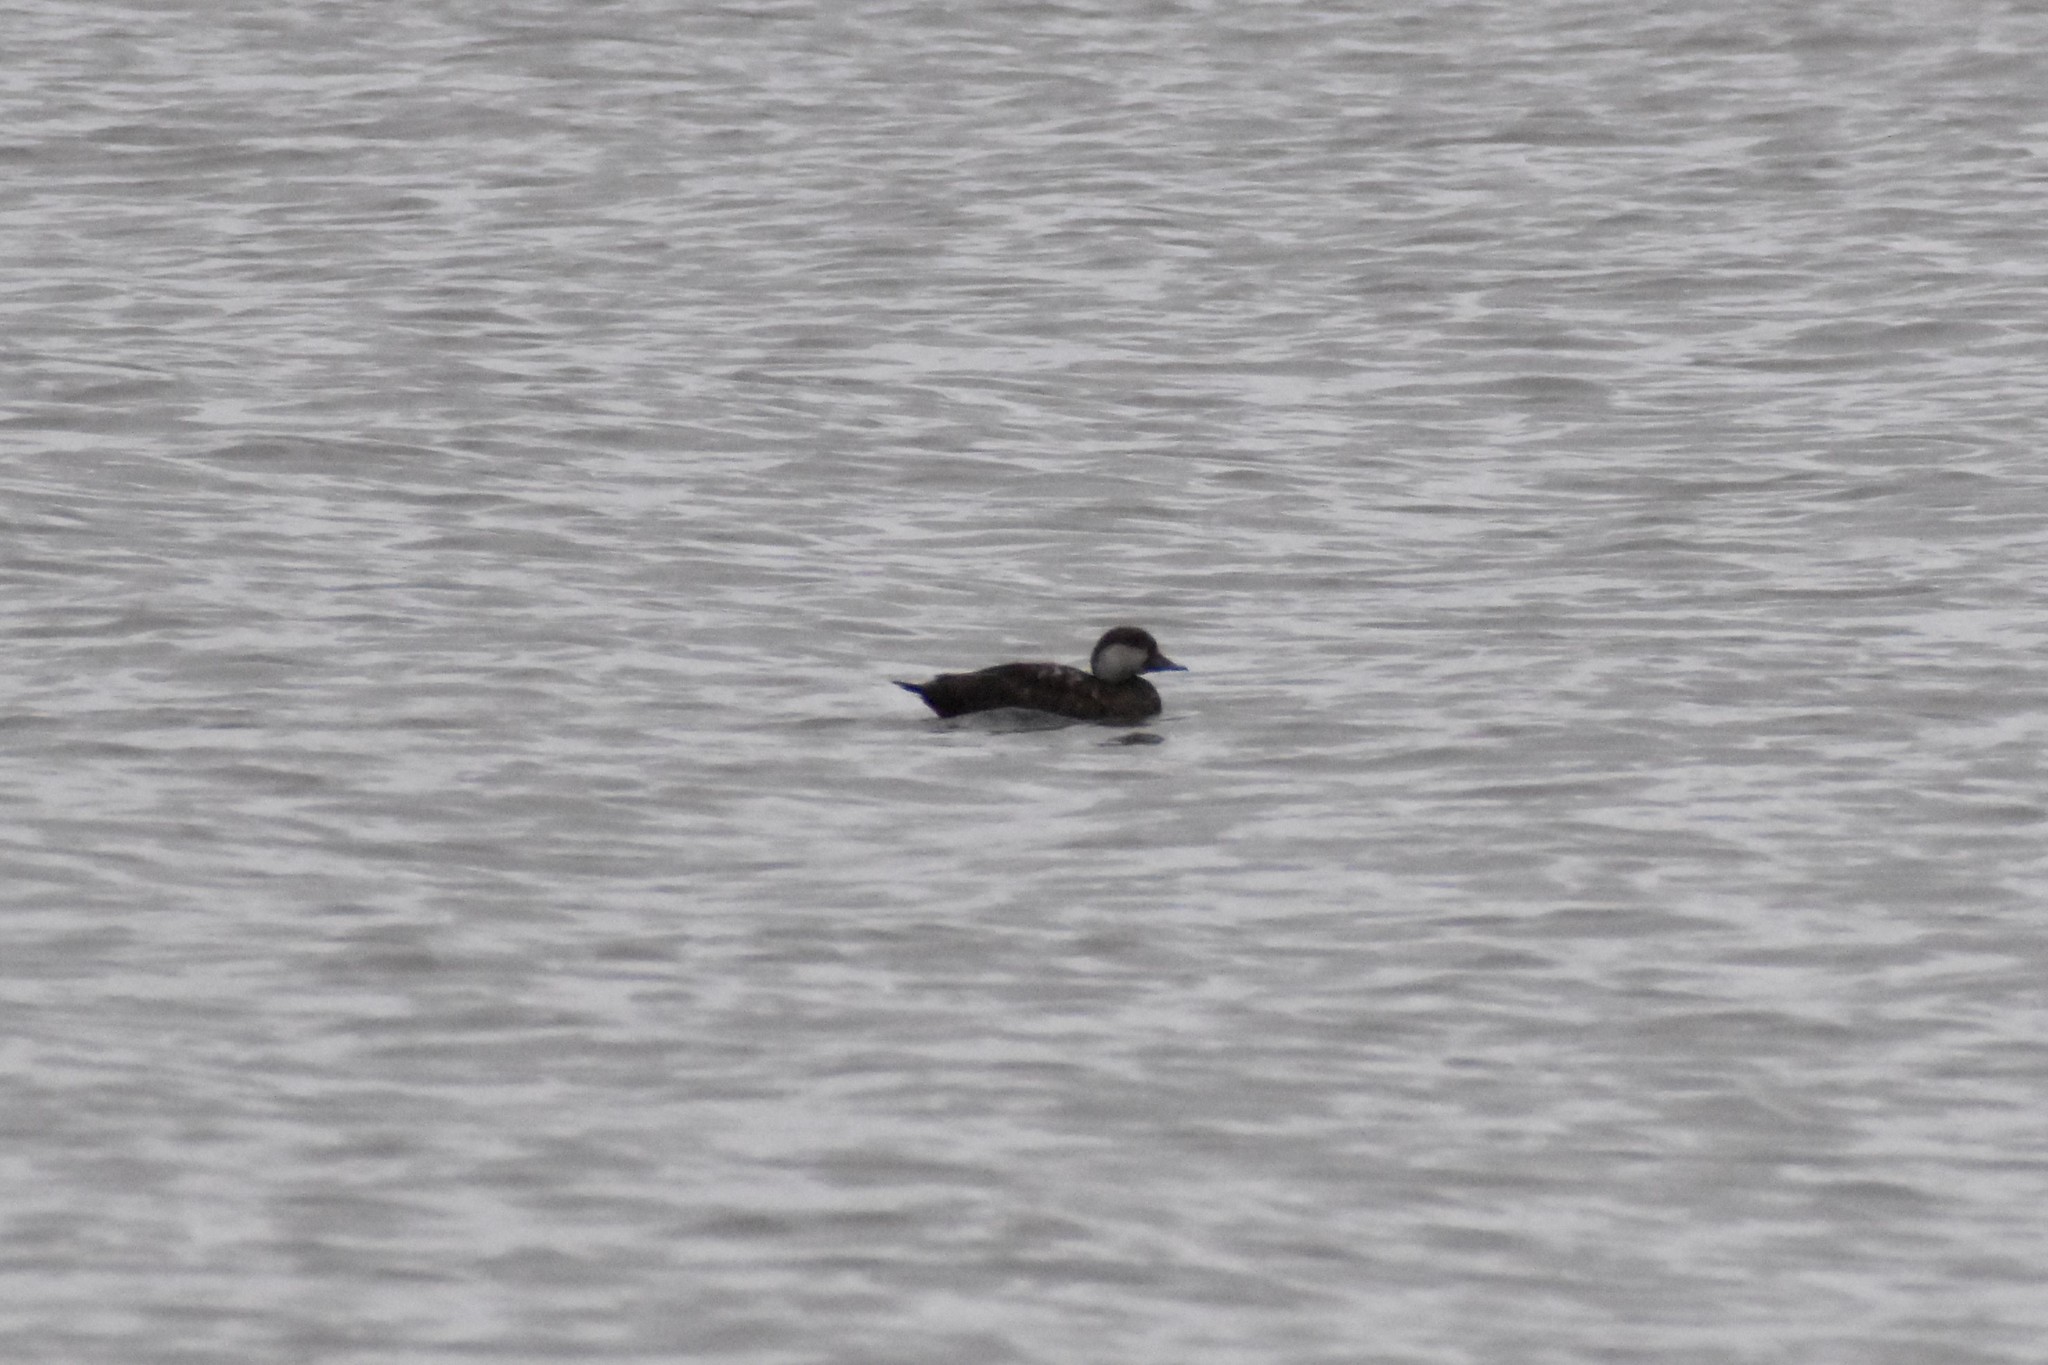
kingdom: Animalia
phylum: Chordata
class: Aves
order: Anseriformes
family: Anatidae
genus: Melanitta
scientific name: Melanitta americana
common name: Black scoter
